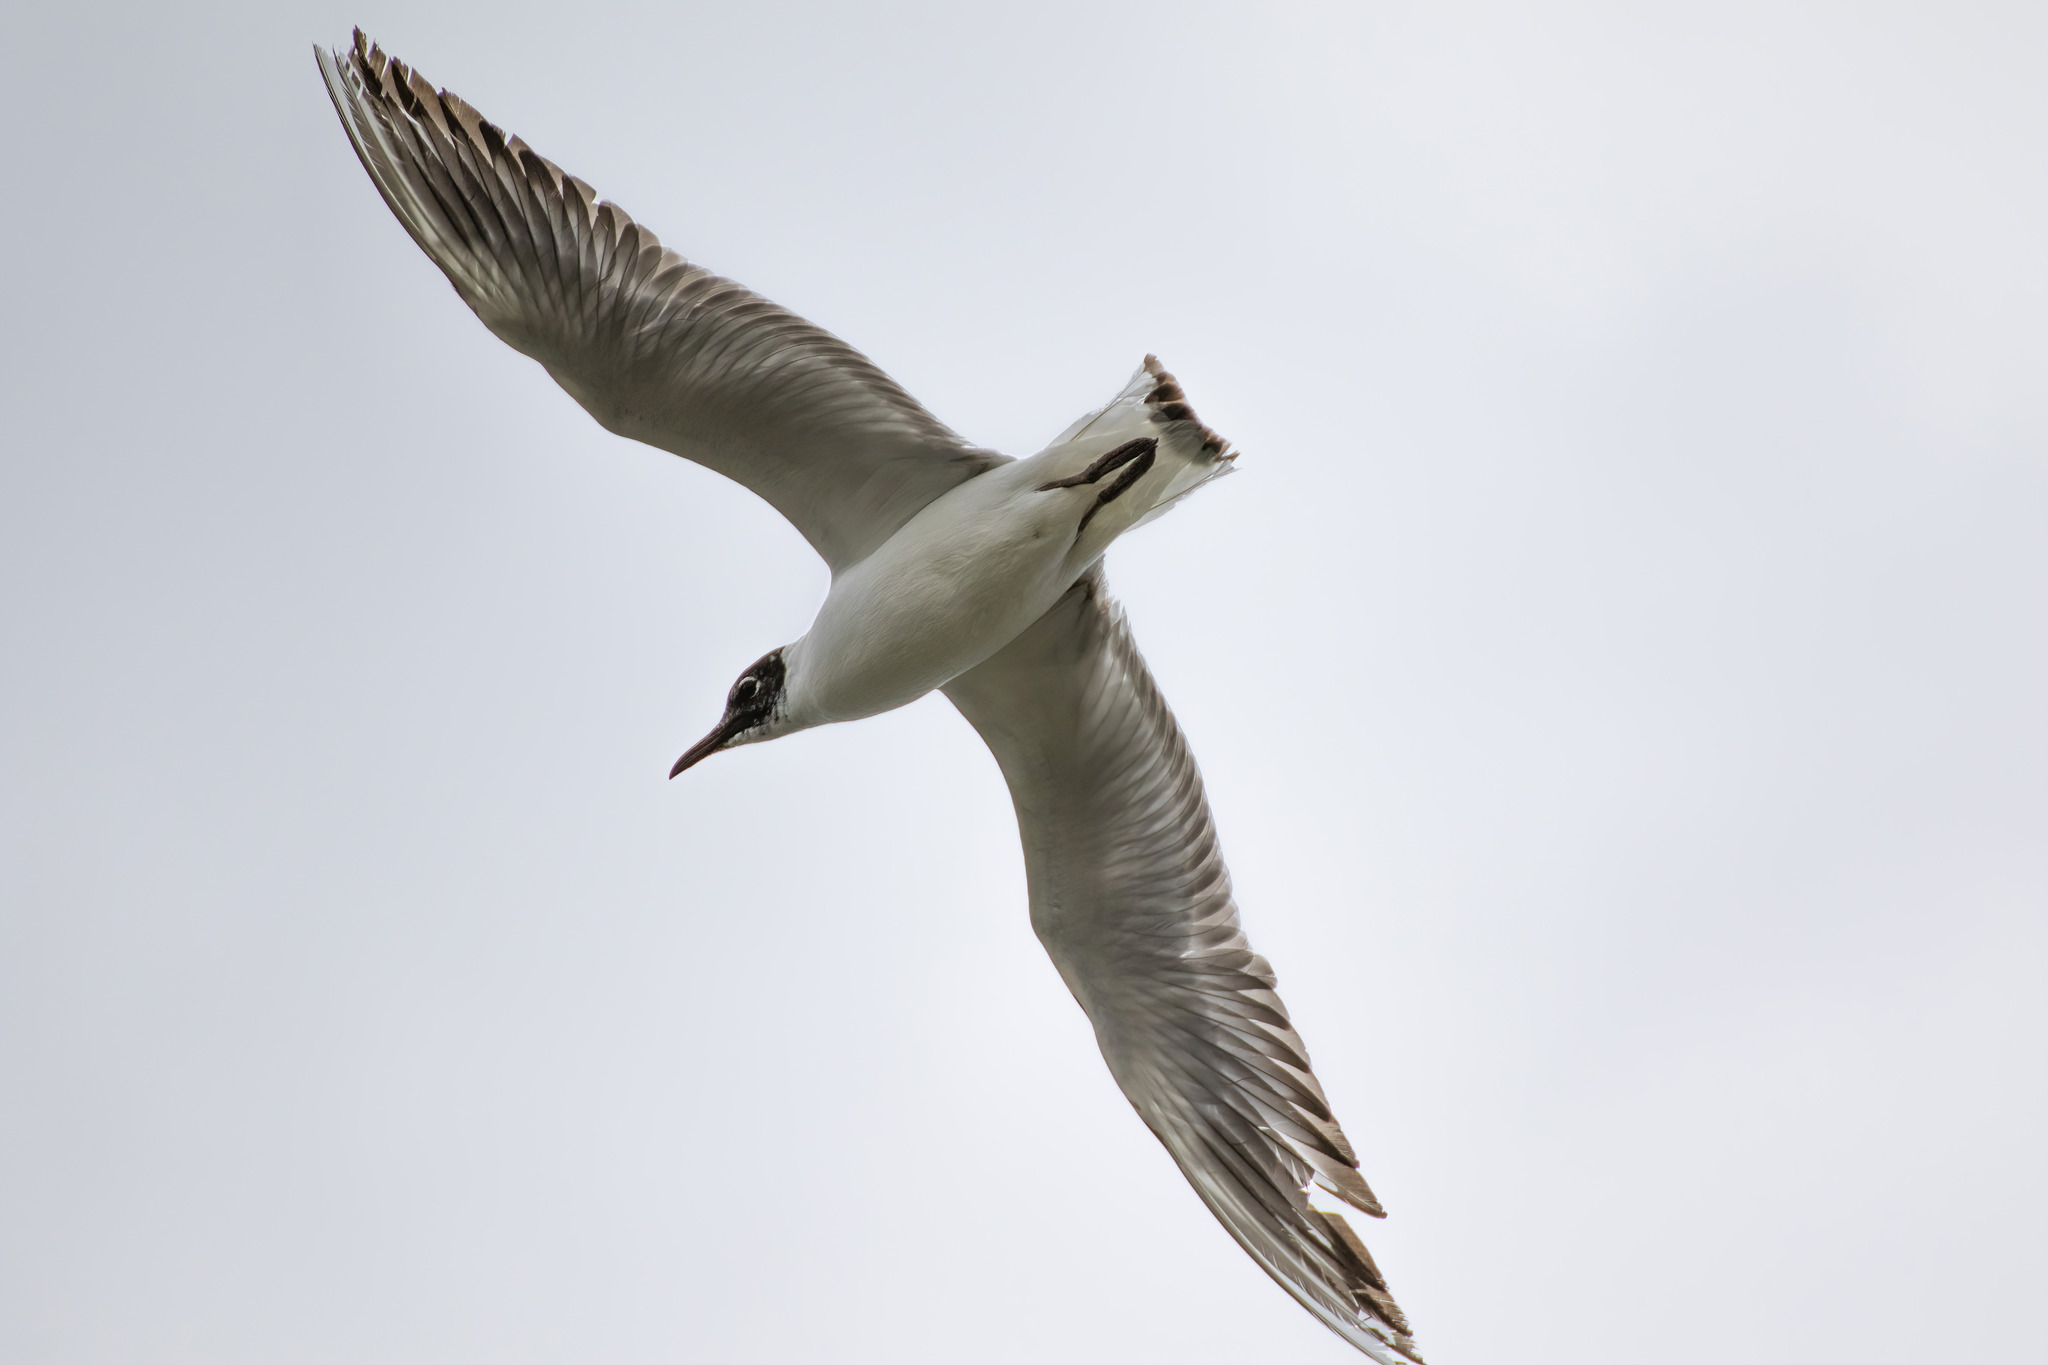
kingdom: Animalia
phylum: Chordata
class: Aves
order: Charadriiformes
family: Laridae
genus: Chroicocephalus
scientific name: Chroicocephalus ridibundus
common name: Black-headed gull
